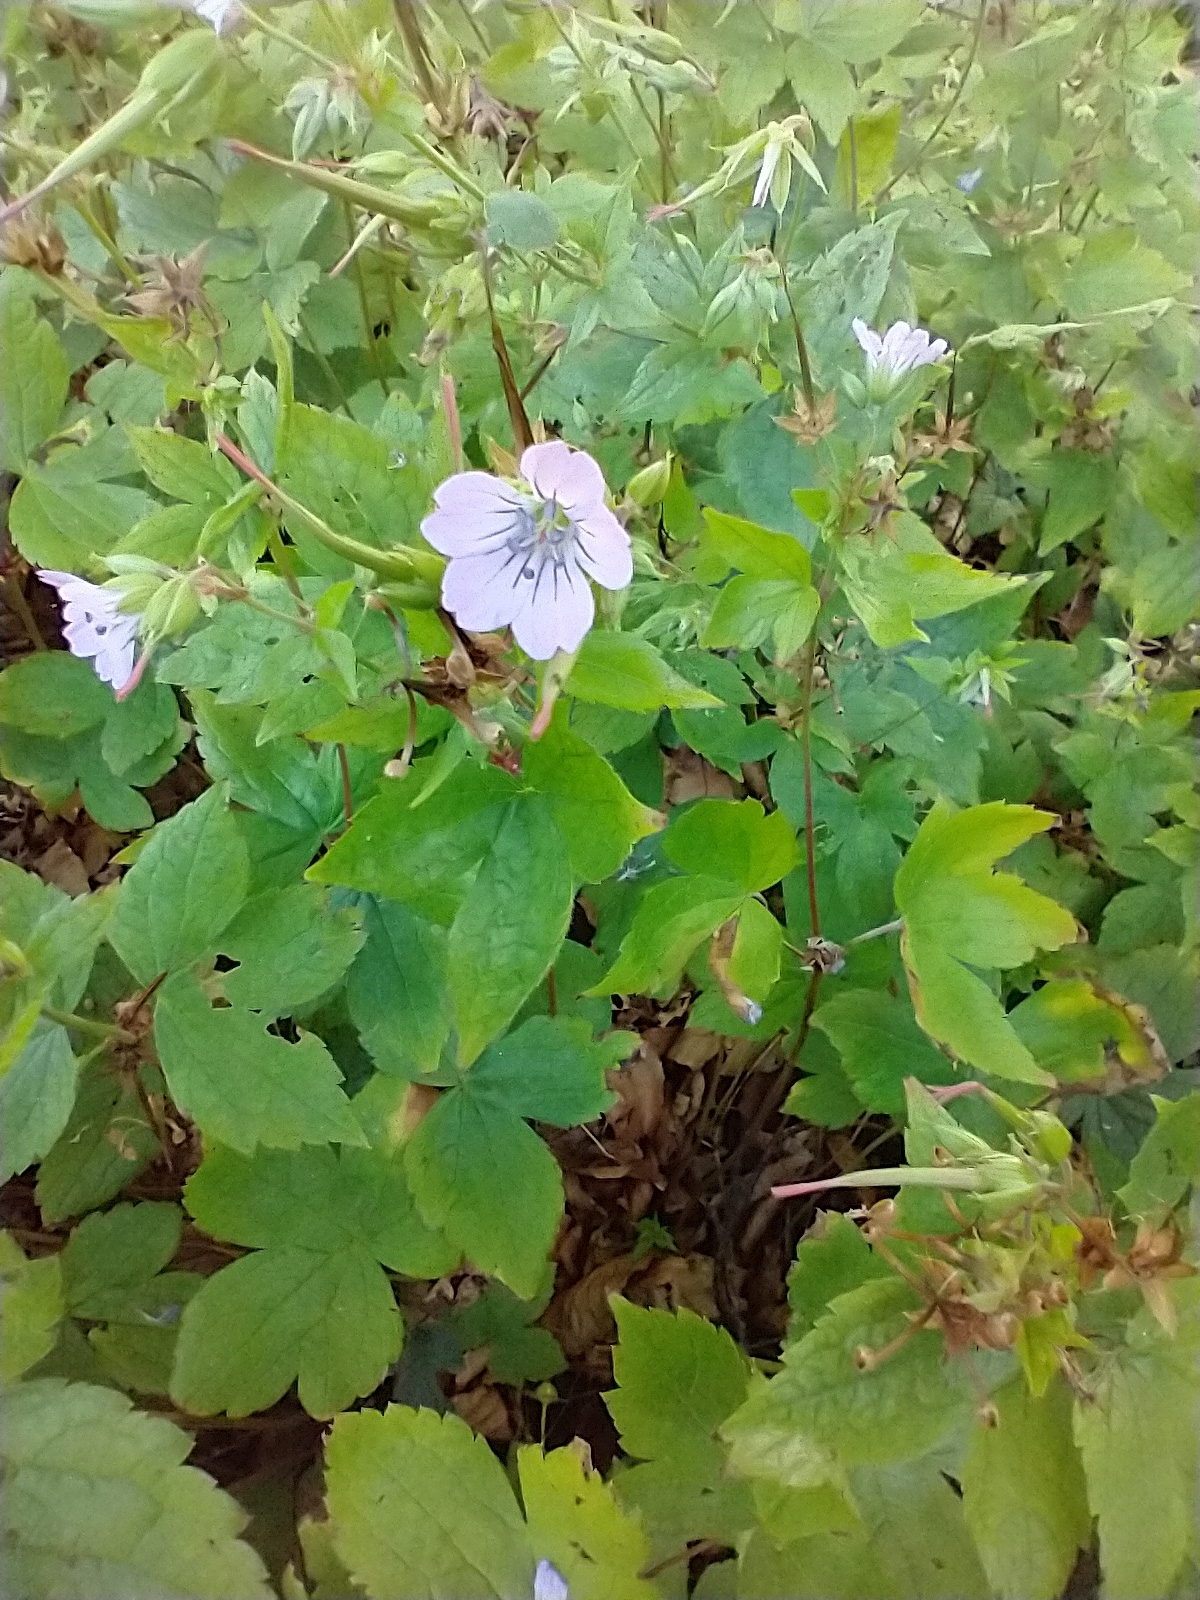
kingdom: Plantae
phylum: Tracheophyta
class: Magnoliopsida
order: Geraniales
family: Geraniaceae
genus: Geranium
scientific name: Geranium nodosum
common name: Knotted crane's-bill
